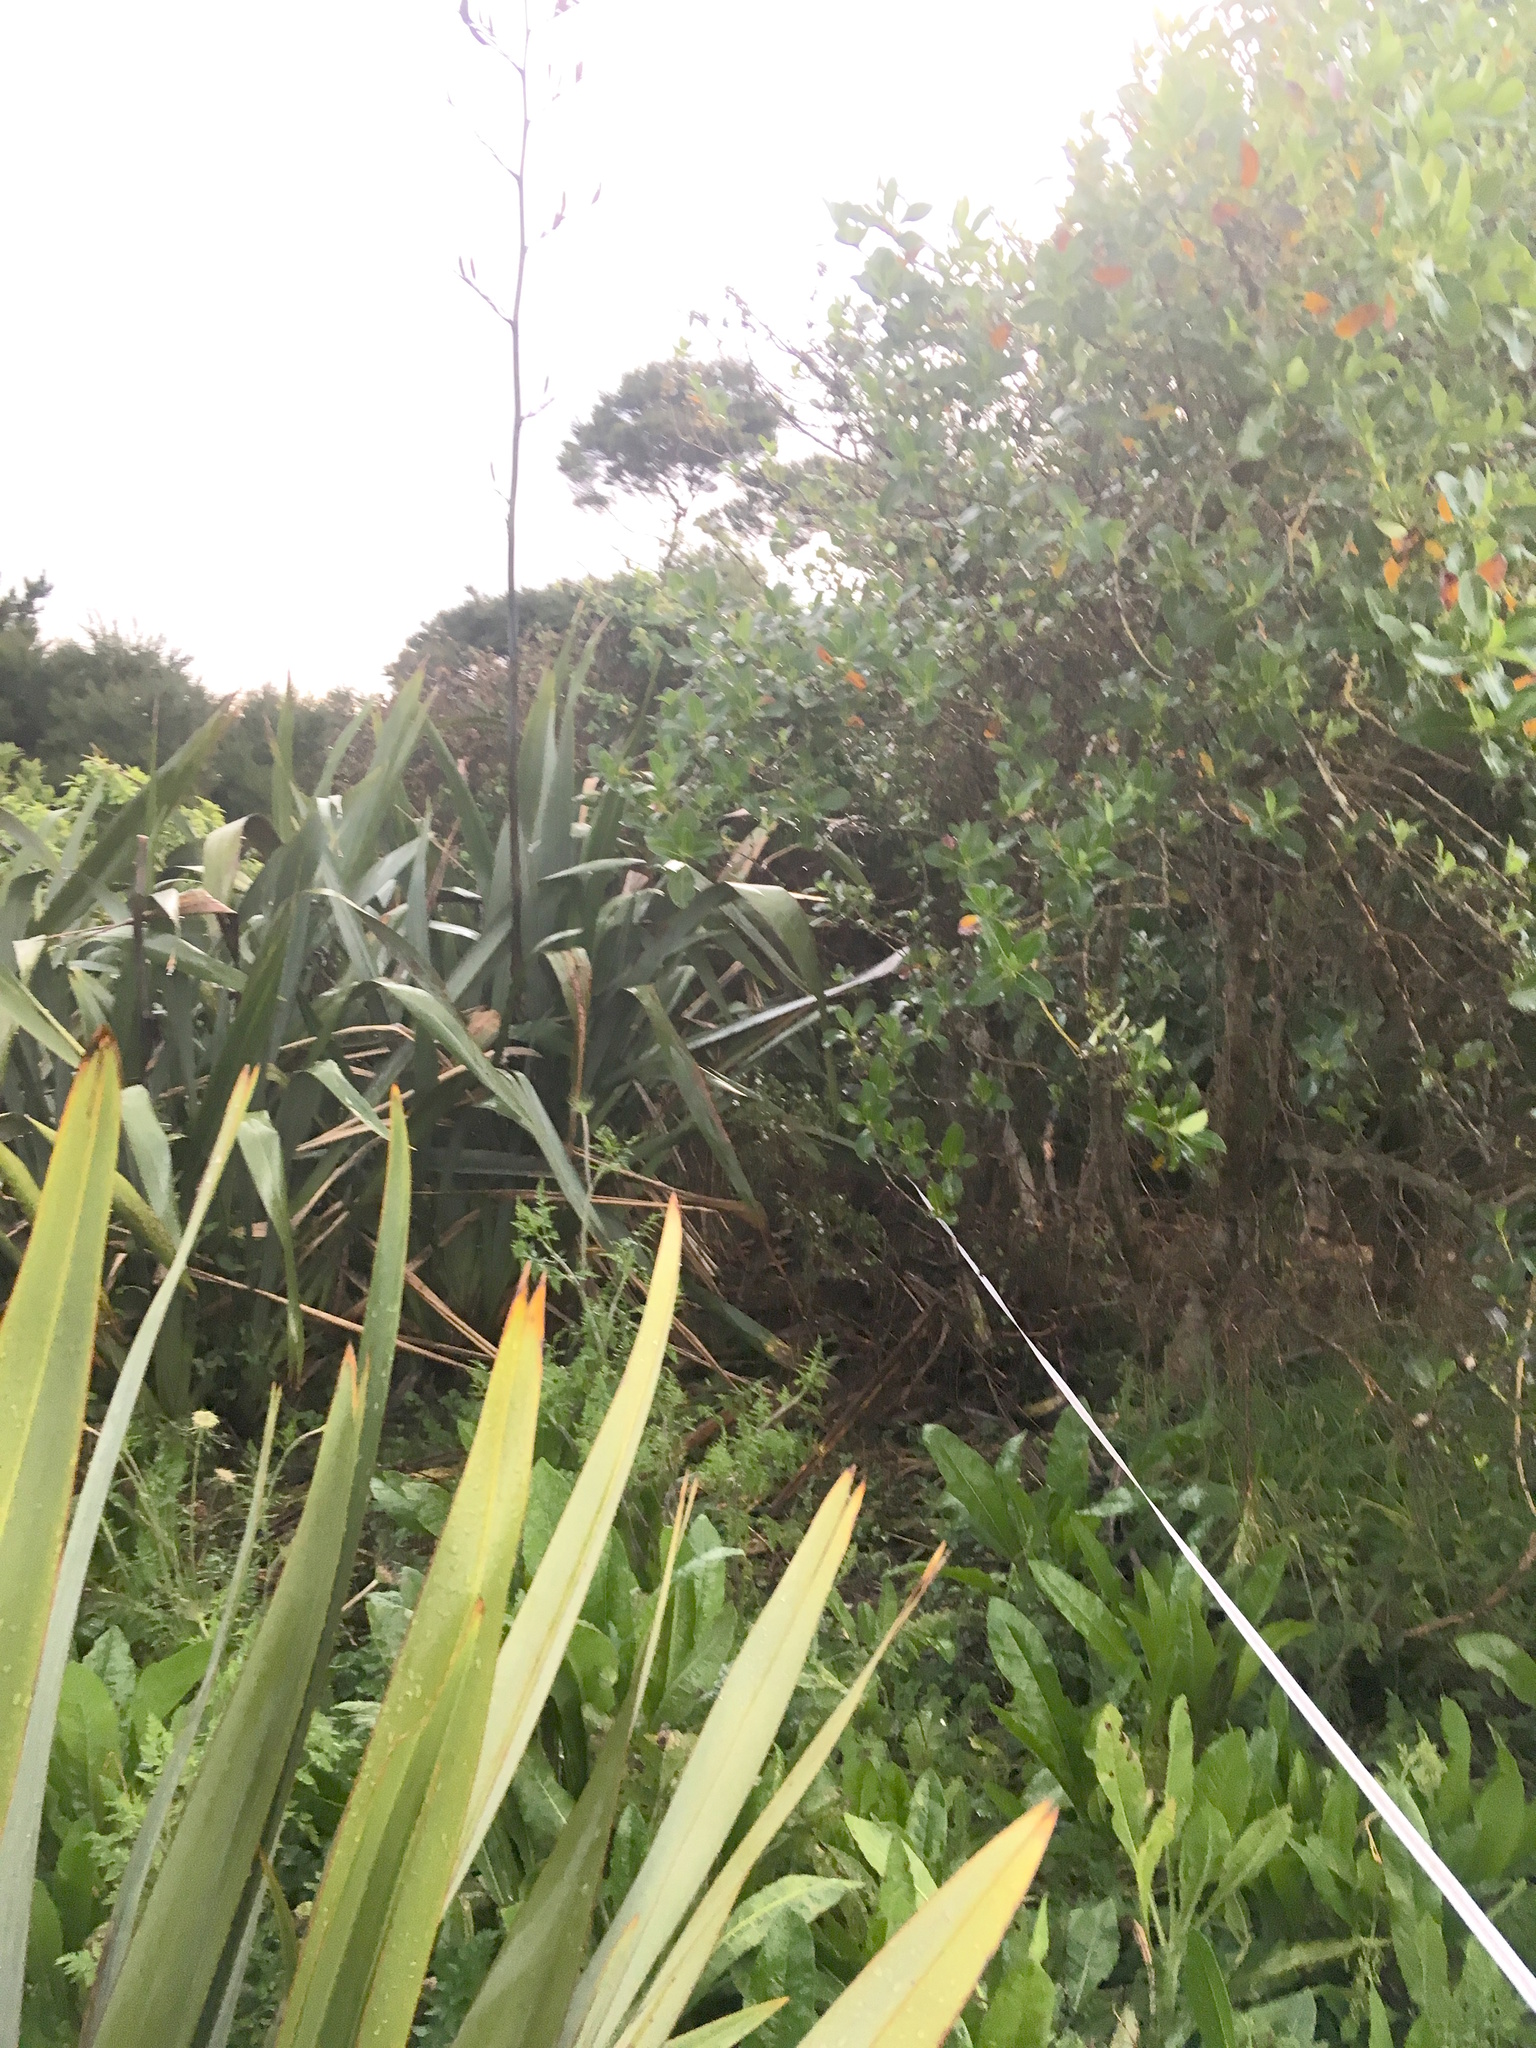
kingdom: Plantae
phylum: Tracheophyta
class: Magnoliopsida
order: Asterales
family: Asteraceae
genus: Helminthotheca
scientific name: Helminthotheca echioides
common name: Ox-tongue
